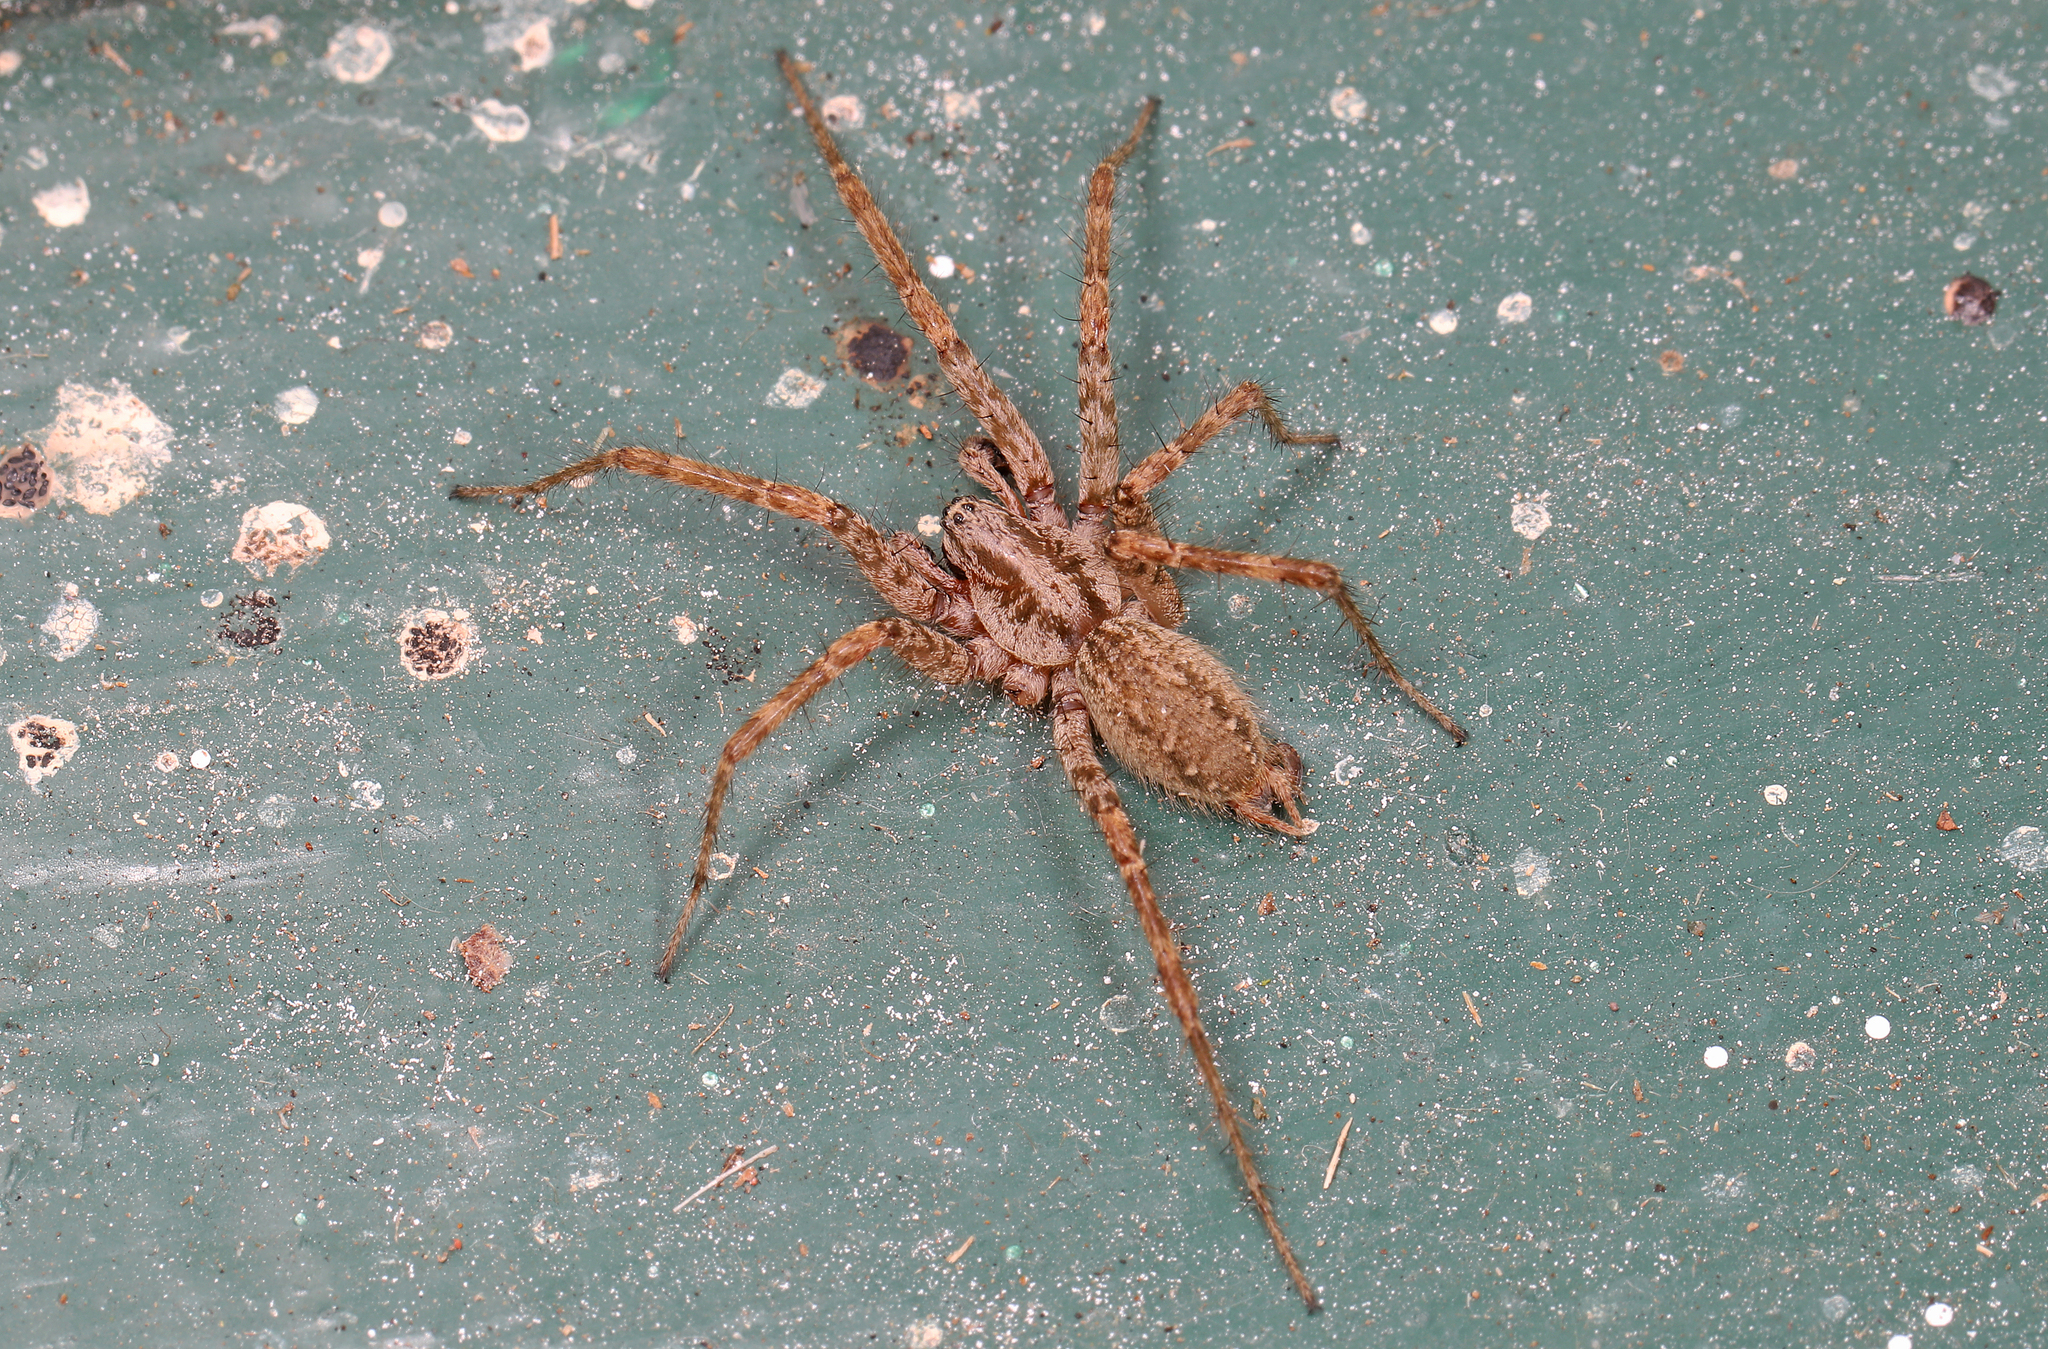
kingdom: Animalia
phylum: Arthropoda
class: Arachnida
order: Araneae
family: Agelenidae
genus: Barronopsis
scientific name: Barronopsis jeffersi
